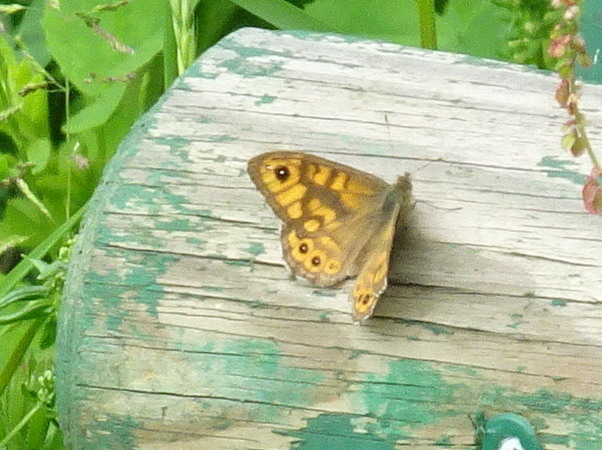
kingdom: Animalia
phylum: Arthropoda
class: Insecta
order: Lepidoptera
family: Nymphalidae
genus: Pararge
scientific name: Pararge Lasiommata megera
